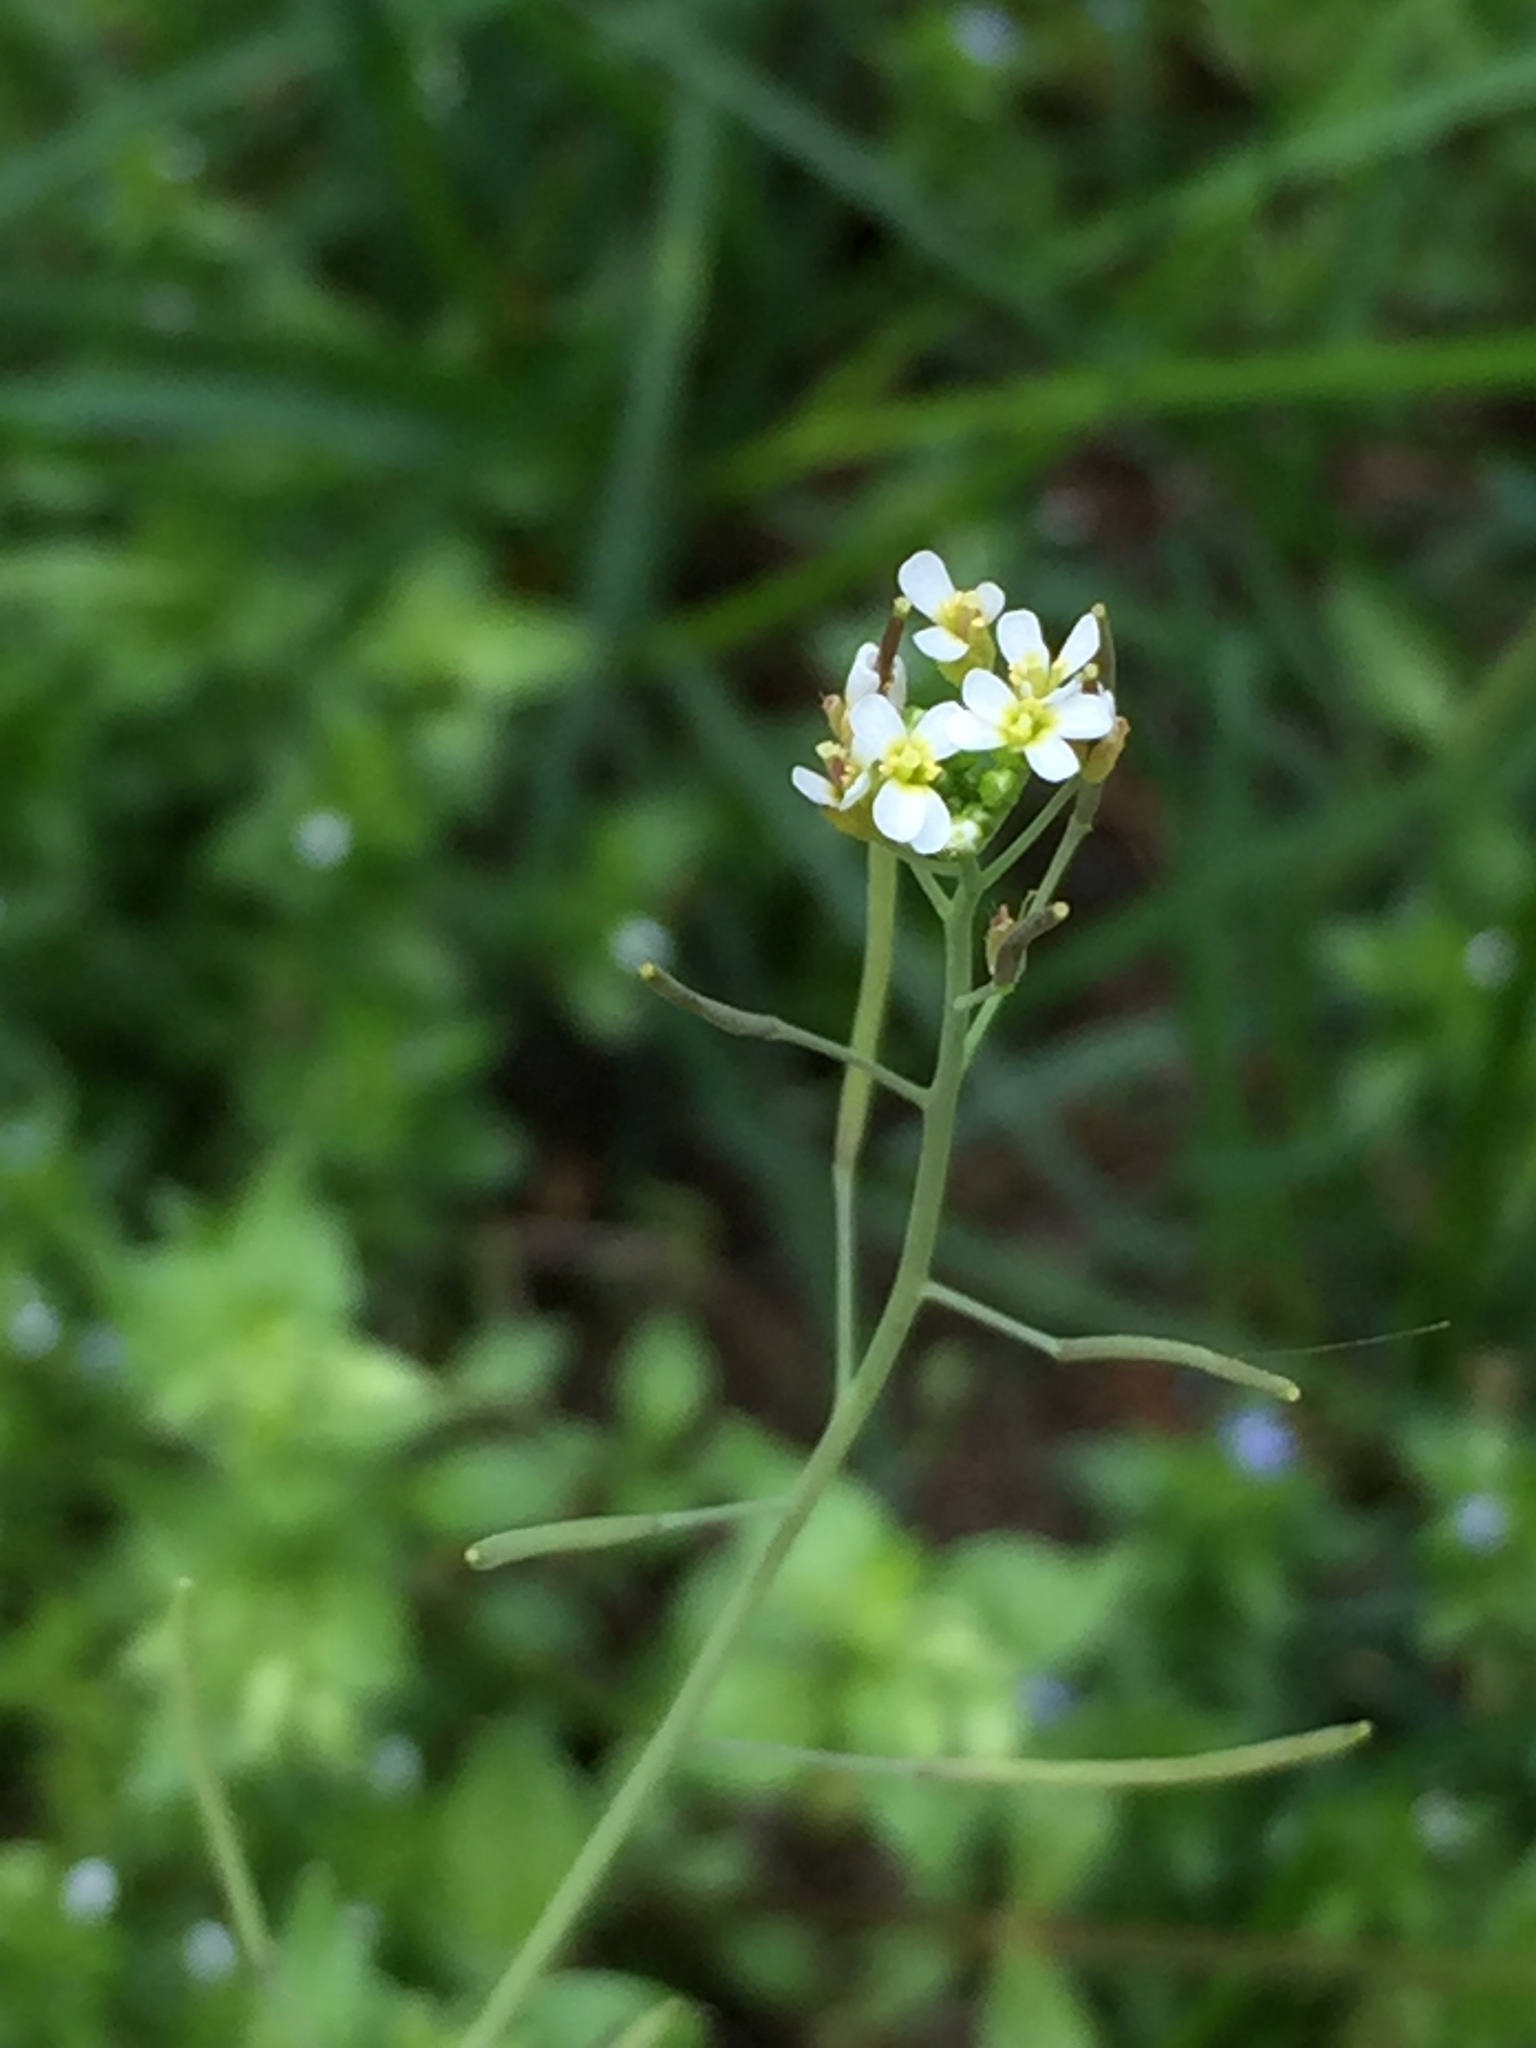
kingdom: Plantae
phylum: Tracheophyta
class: Magnoliopsida
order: Brassicales
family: Brassicaceae
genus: Arabidopsis
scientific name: Arabidopsis thaliana
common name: Thale cress
